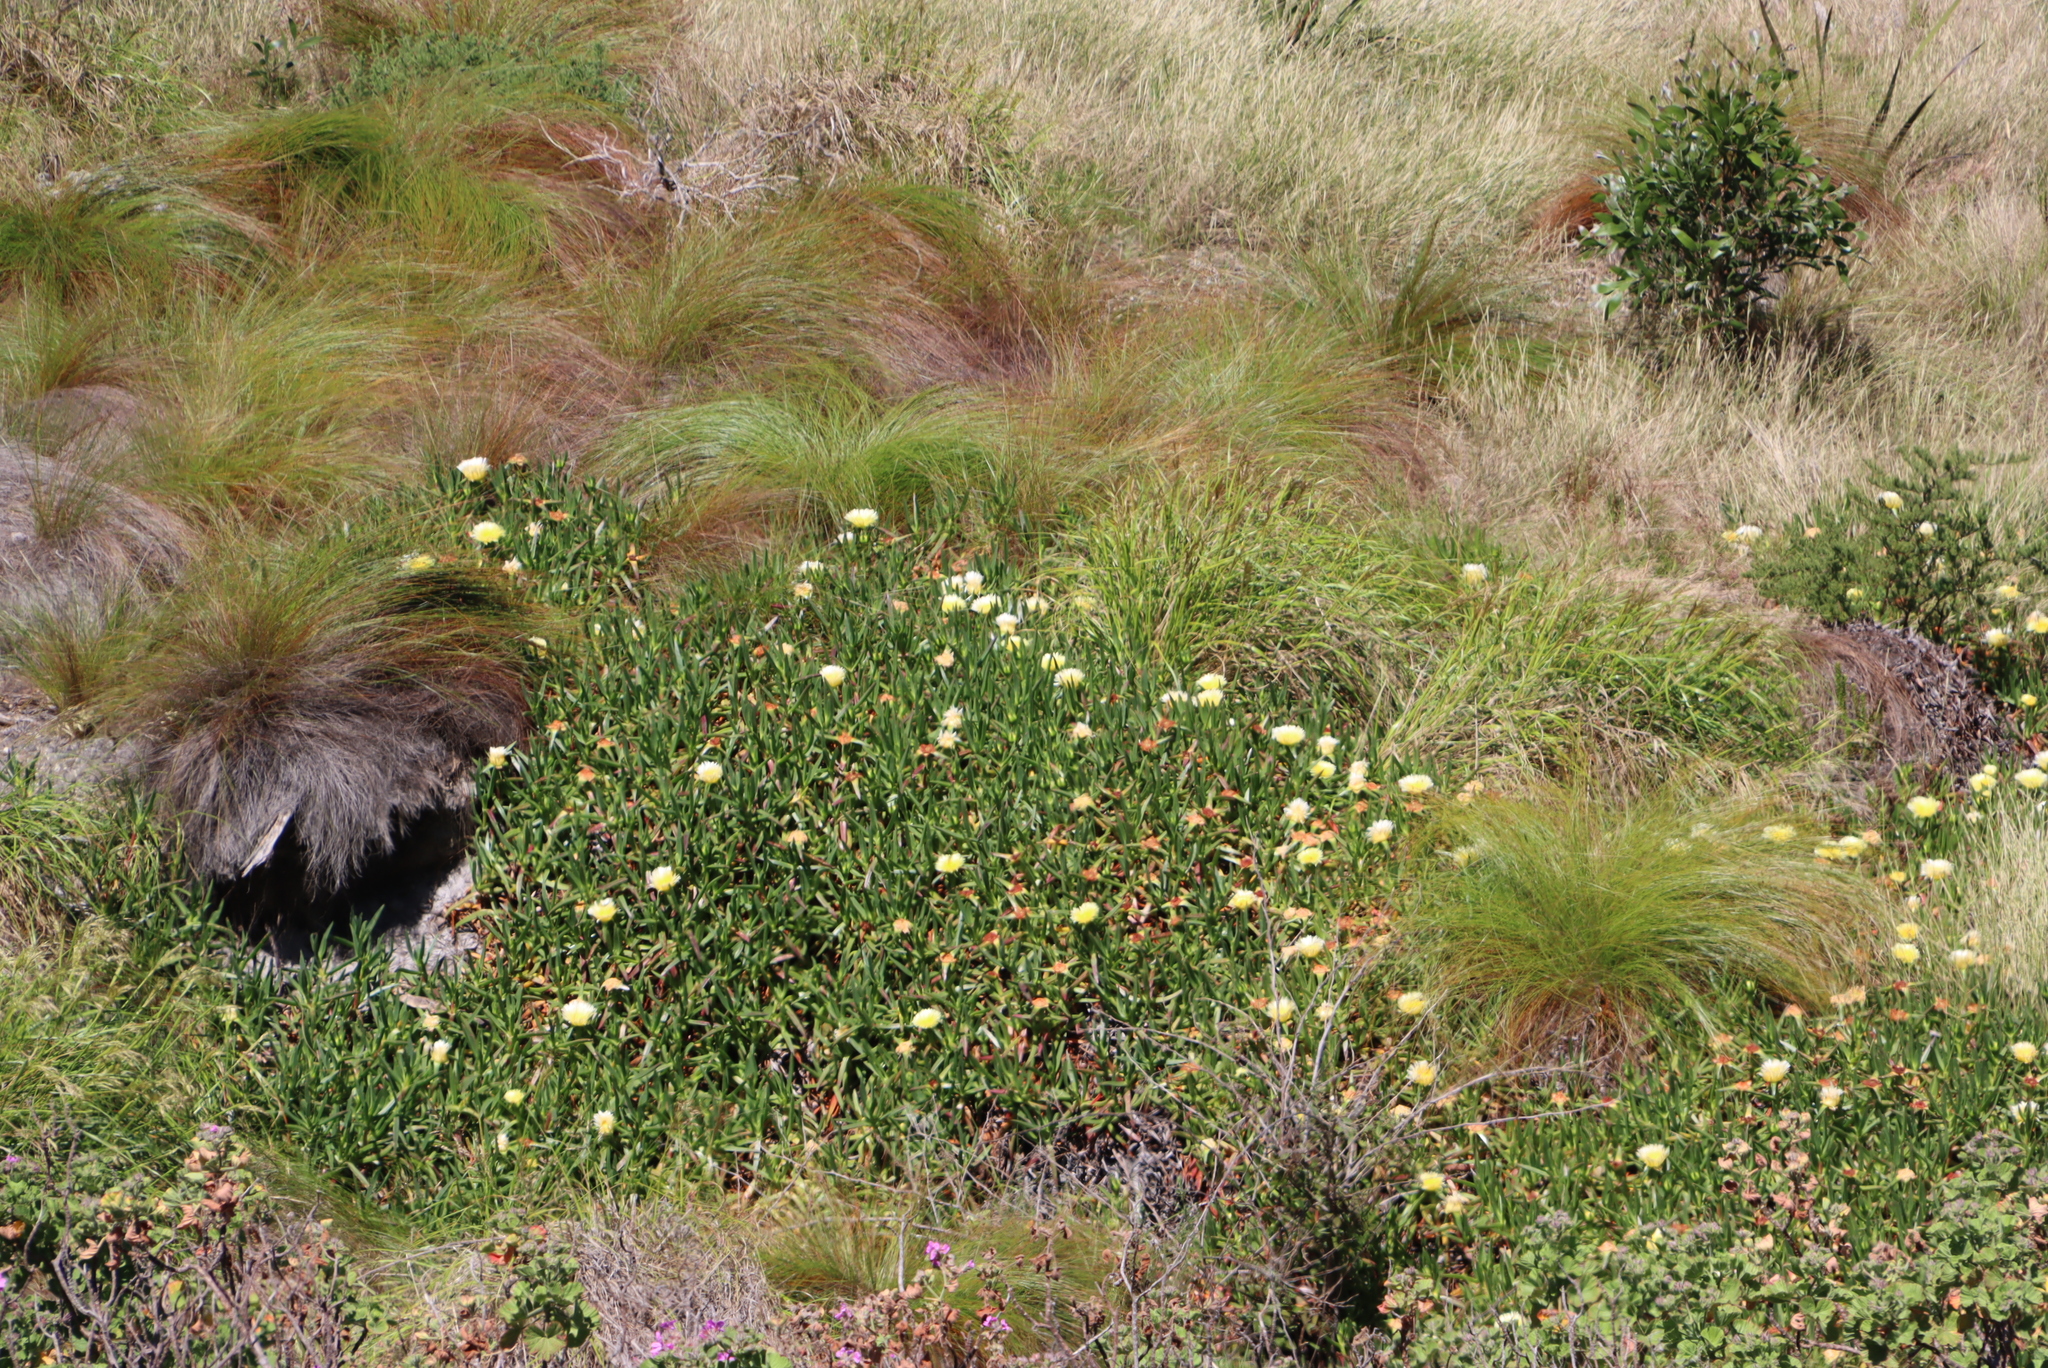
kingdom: Plantae
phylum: Tracheophyta
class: Magnoliopsida
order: Caryophyllales
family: Aizoaceae
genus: Carpobrotus
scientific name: Carpobrotus edulis
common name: Hottentot-fig
